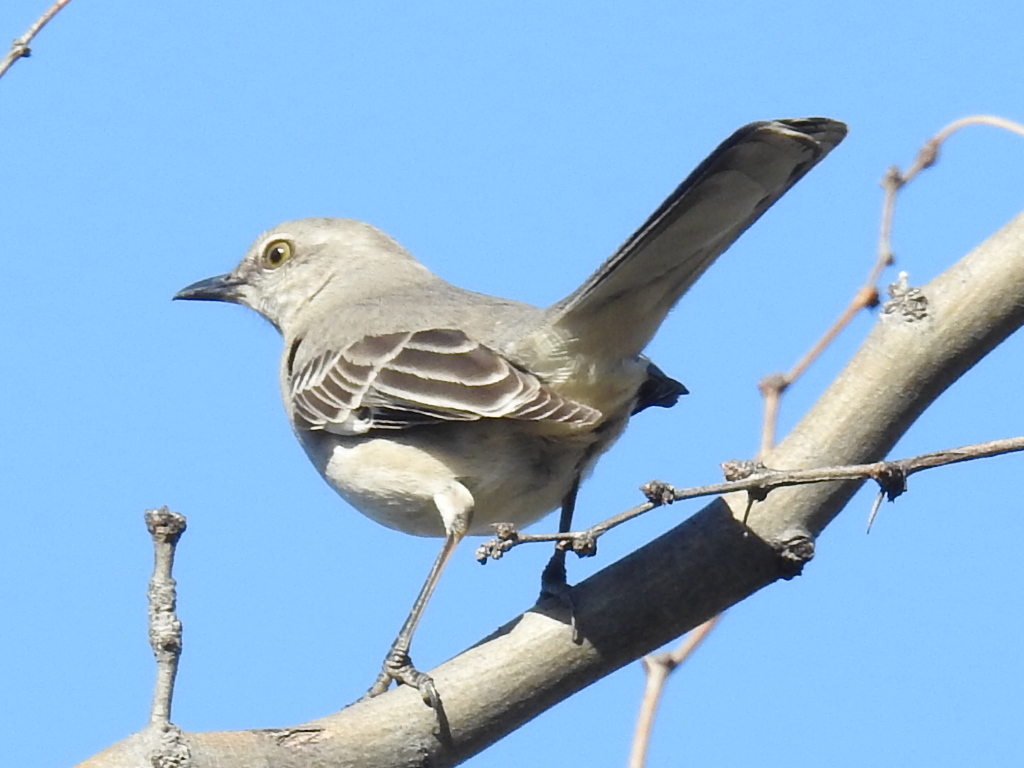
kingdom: Animalia
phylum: Chordata
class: Aves
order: Passeriformes
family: Mimidae
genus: Mimus
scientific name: Mimus polyglottos
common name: Northern mockingbird
